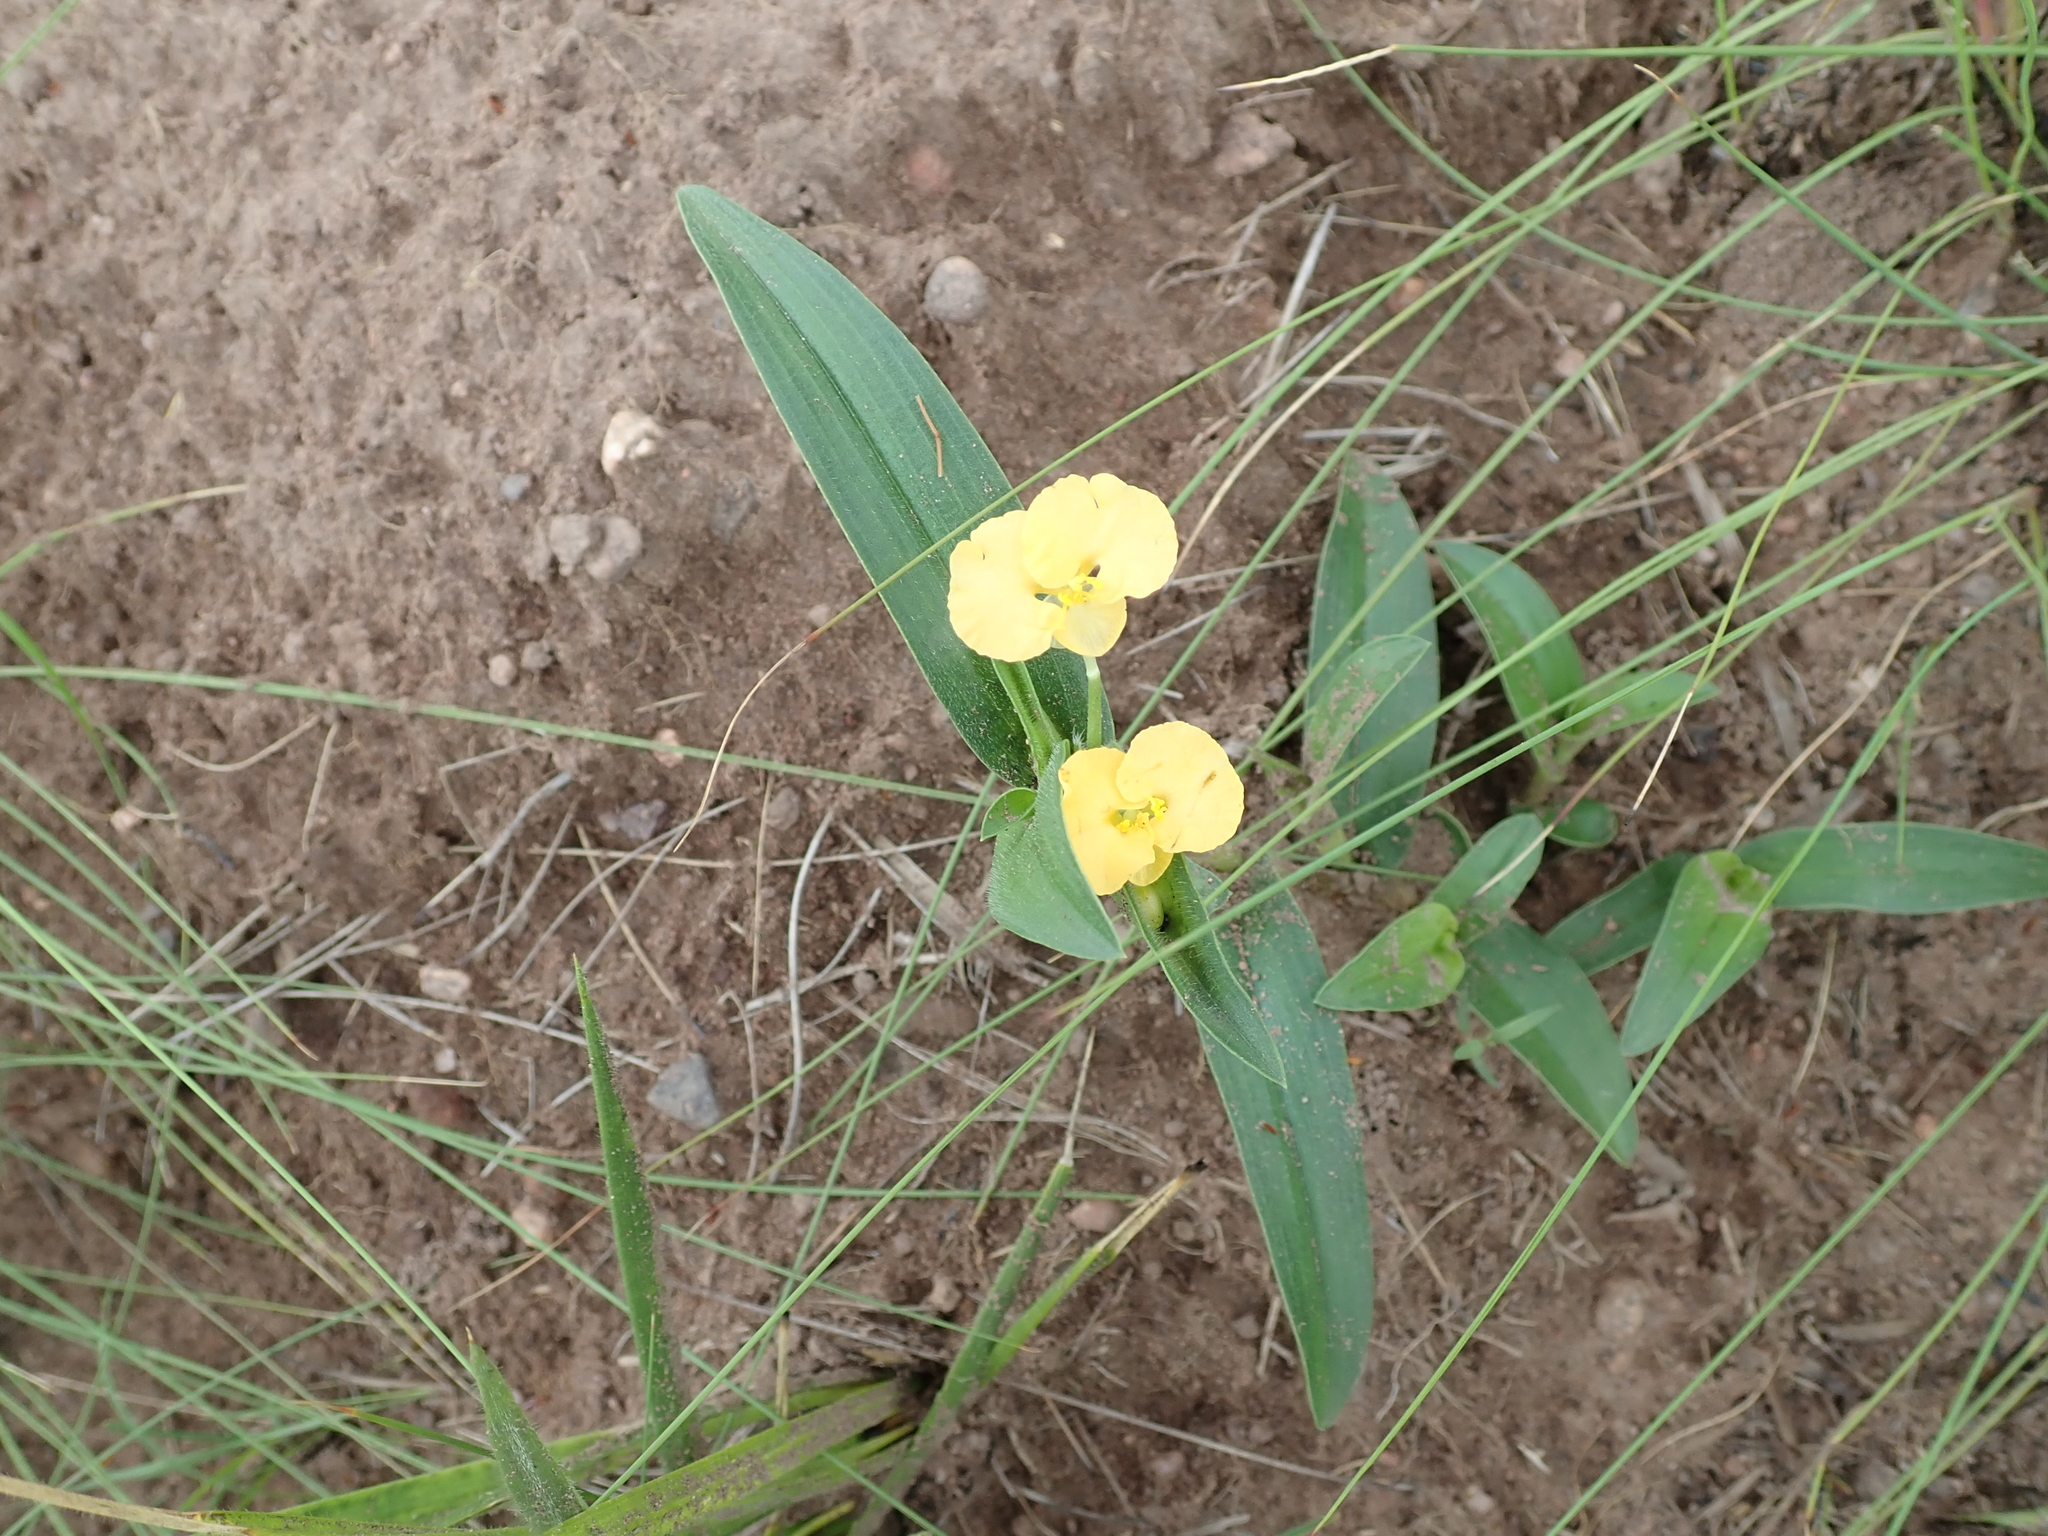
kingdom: Plantae
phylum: Tracheophyta
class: Liliopsida
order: Commelinales
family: Commelinaceae
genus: Commelina
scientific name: Commelina africana
